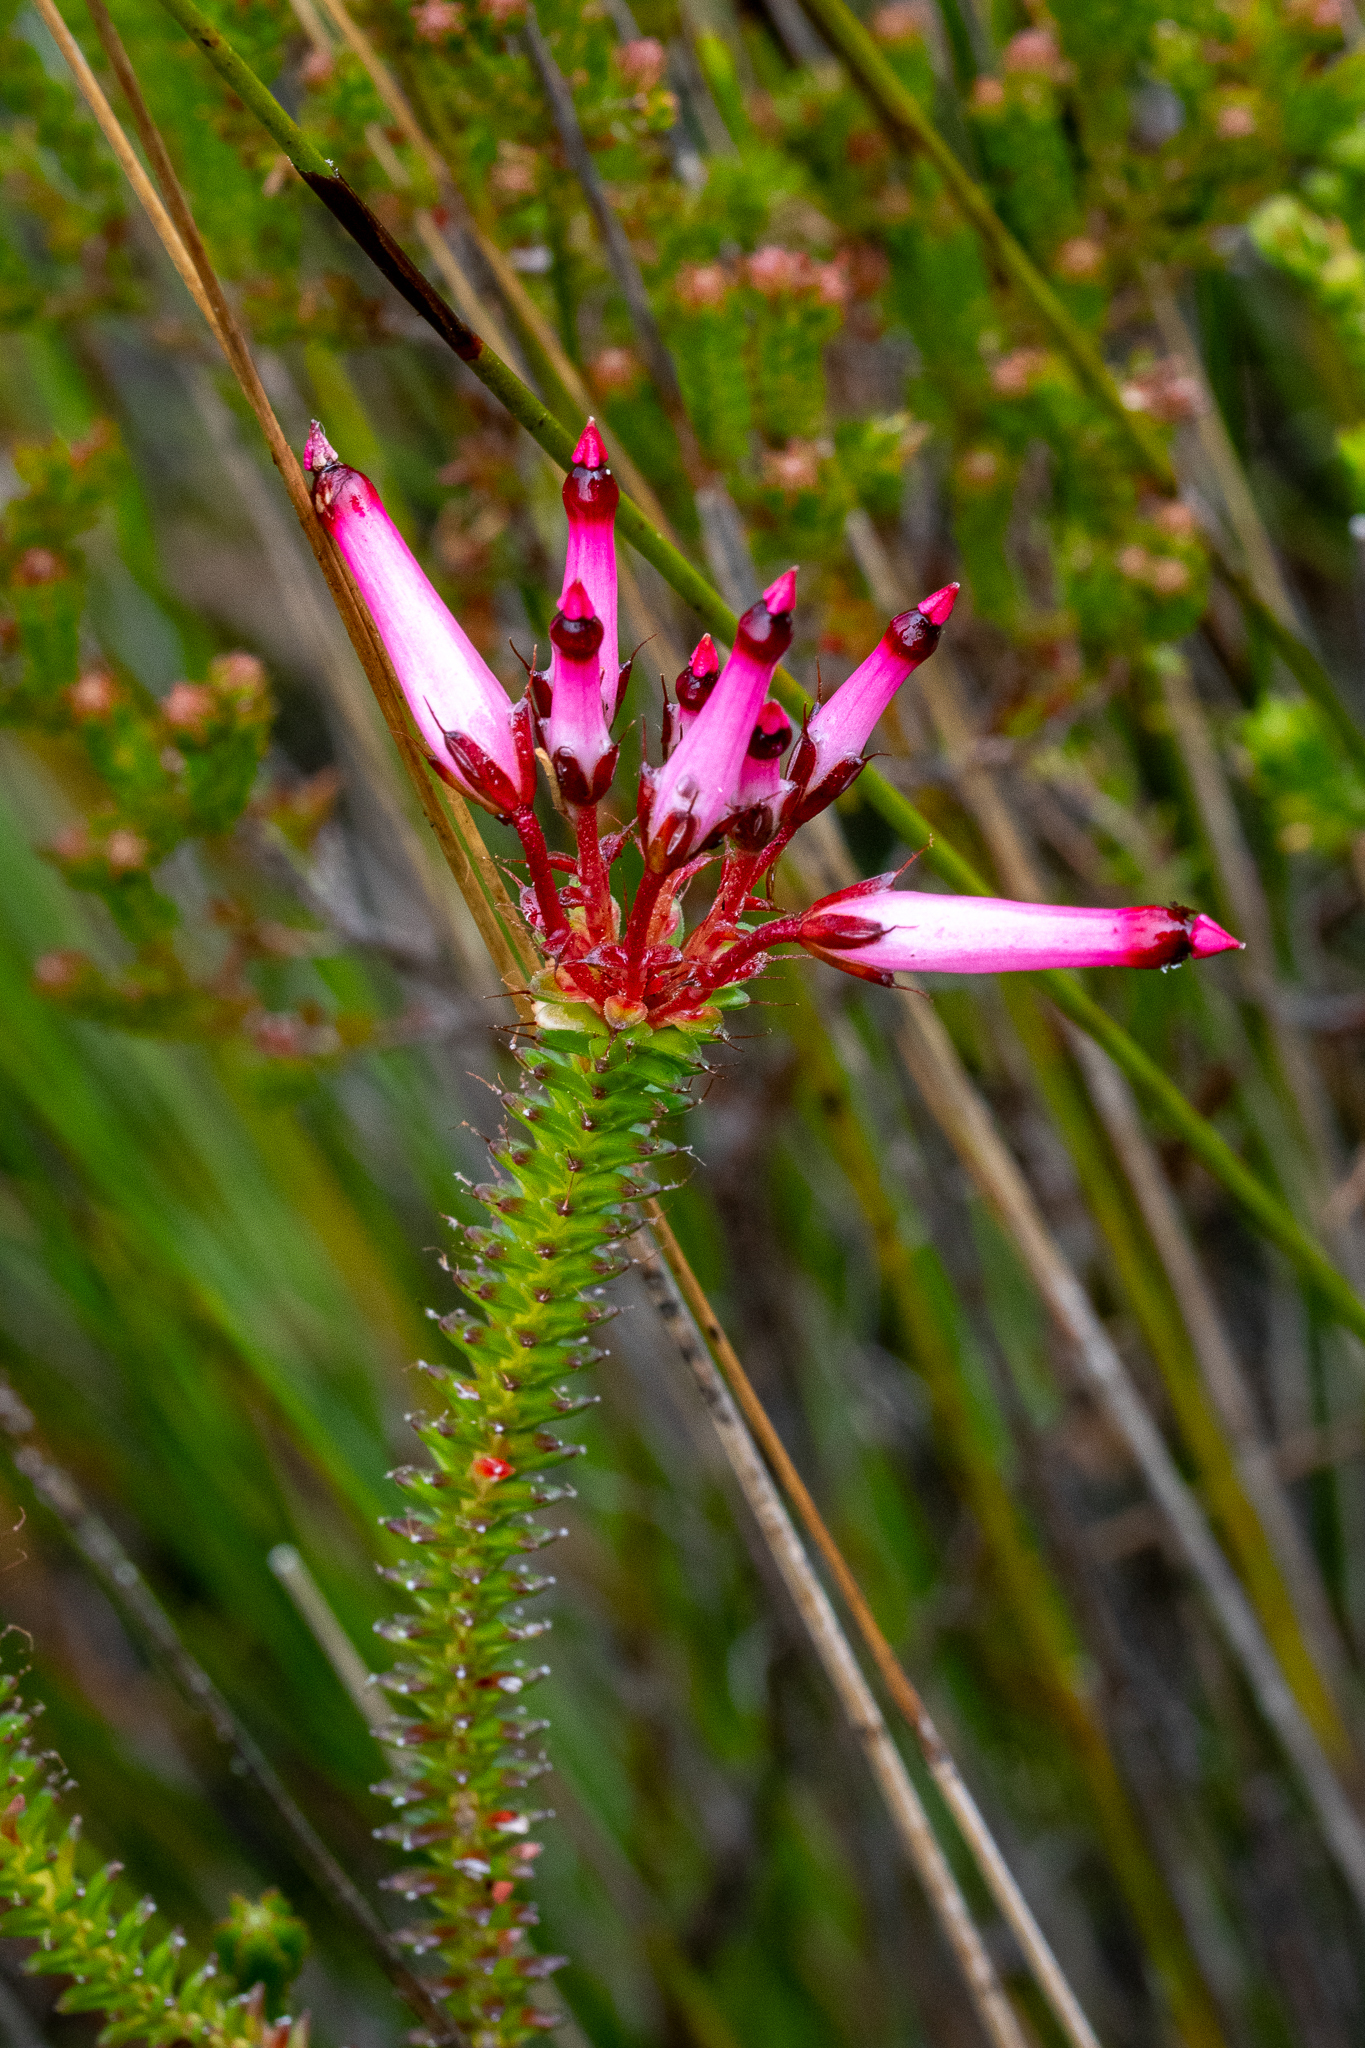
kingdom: Plantae
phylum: Tracheophyta
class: Magnoliopsida
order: Ericales
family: Ericaceae
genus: Erica
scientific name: Erica retorta
